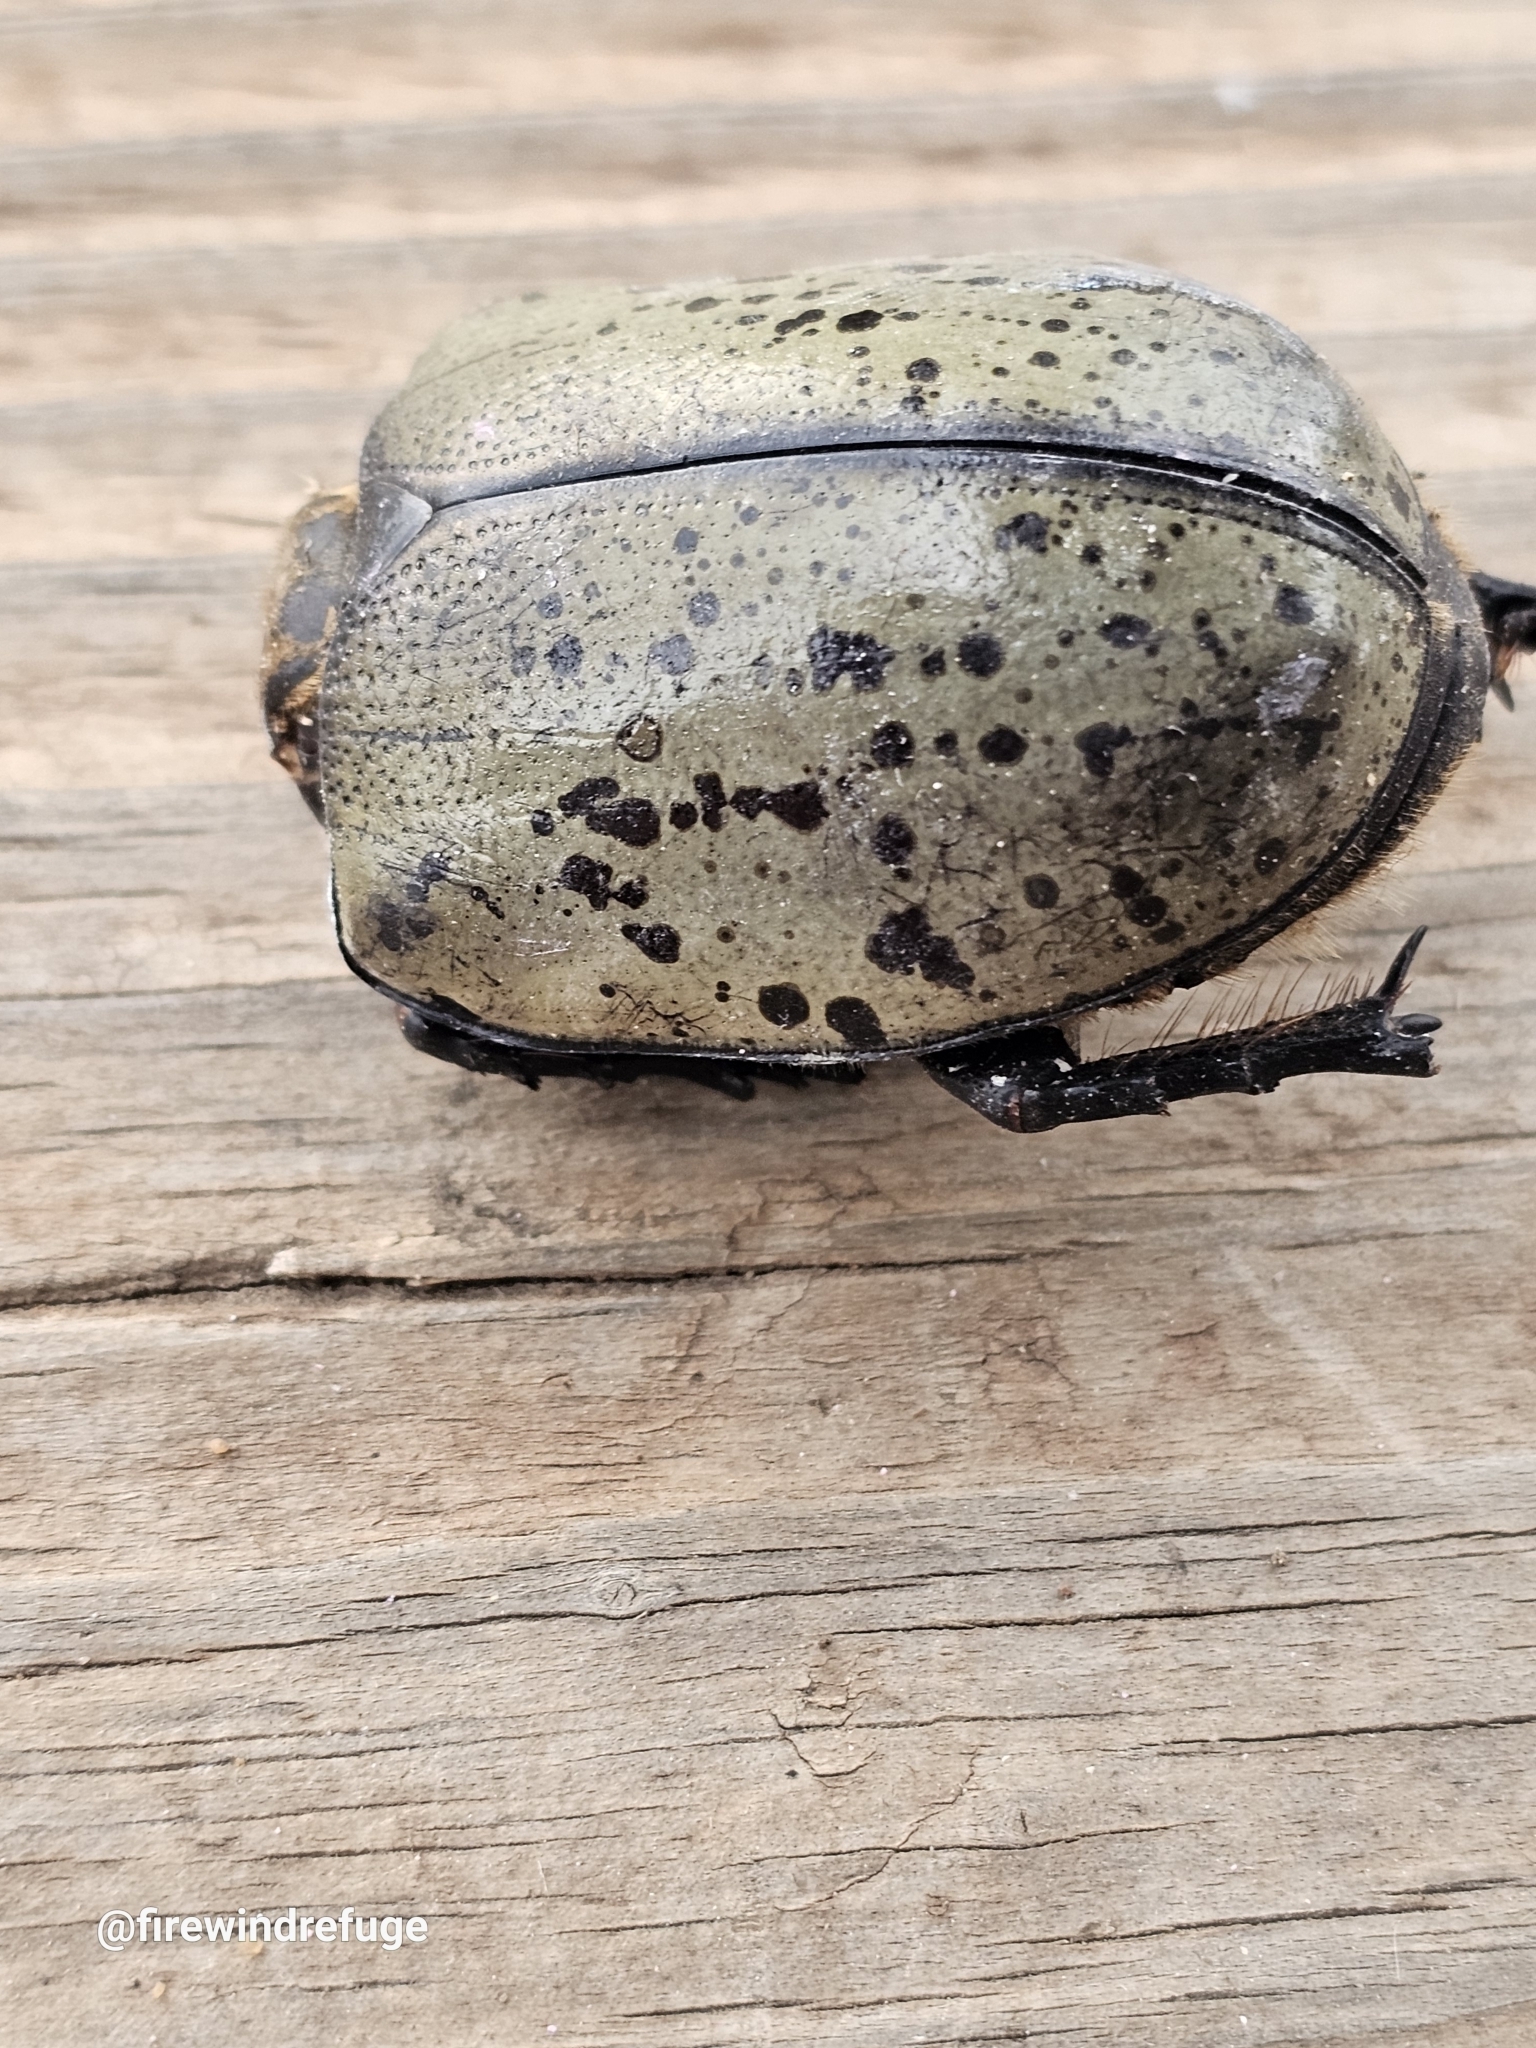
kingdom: Animalia
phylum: Arthropoda
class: Insecta
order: Coleoptera
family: Scarabaeidae
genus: Dynastes
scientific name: Dynastes tityus
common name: Eastern hercules beetle
